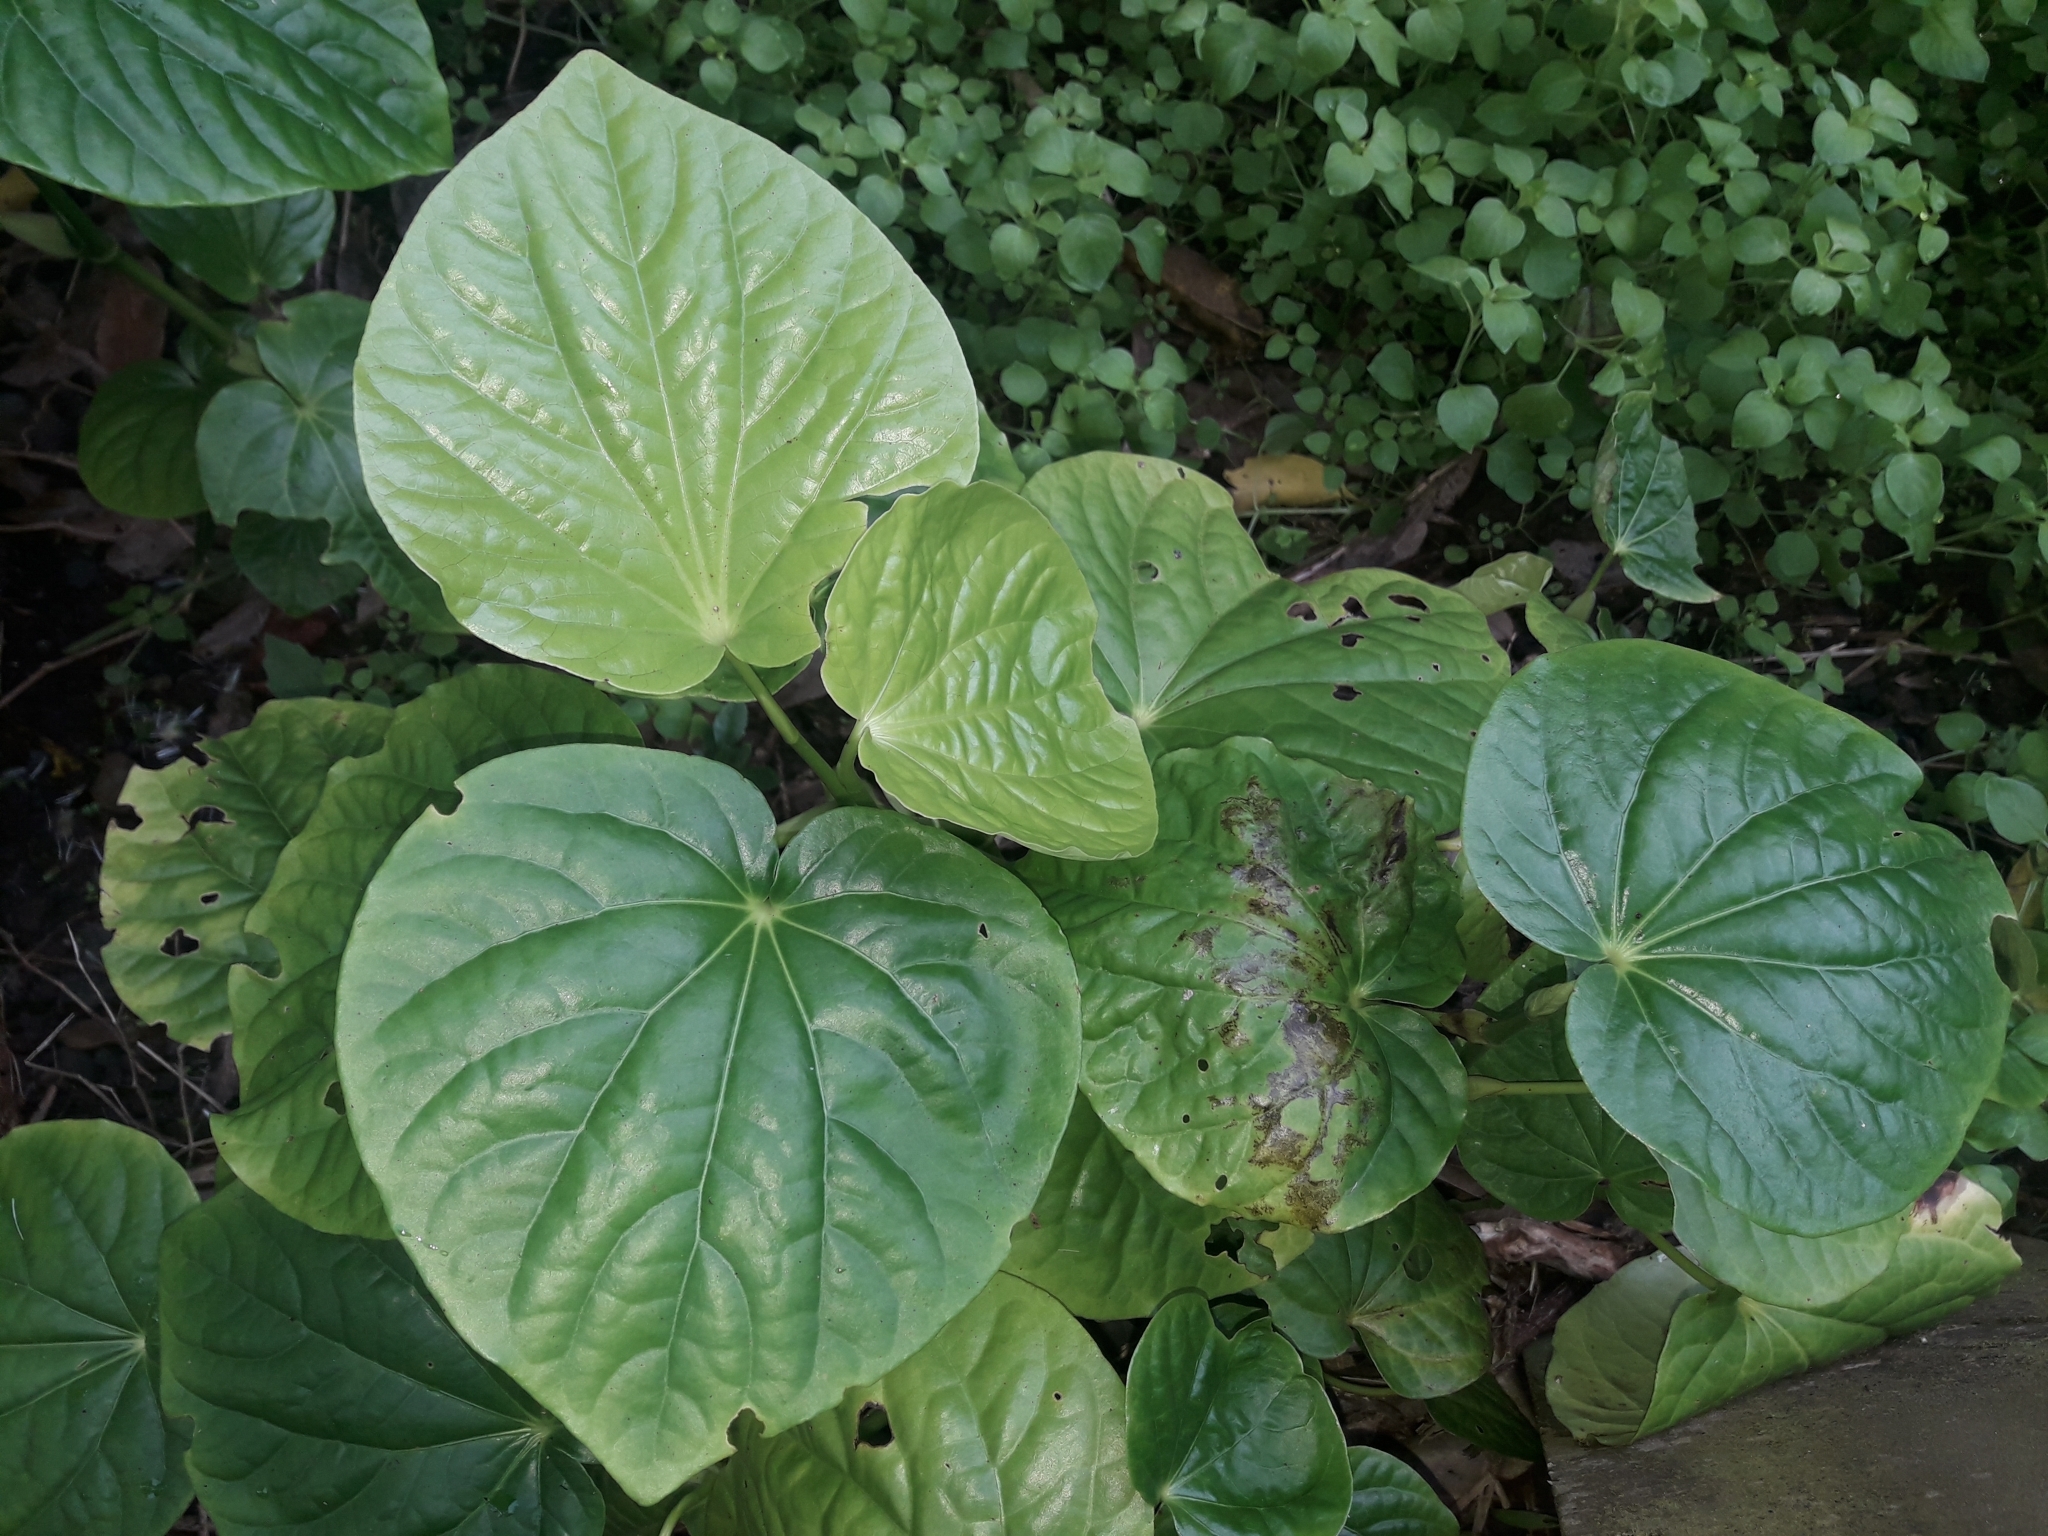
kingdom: Plantae
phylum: Tracheophyta
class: Magnoliopsida
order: Piperales
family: Piperaceae
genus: Macropiper
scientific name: Macropiper excelsum
